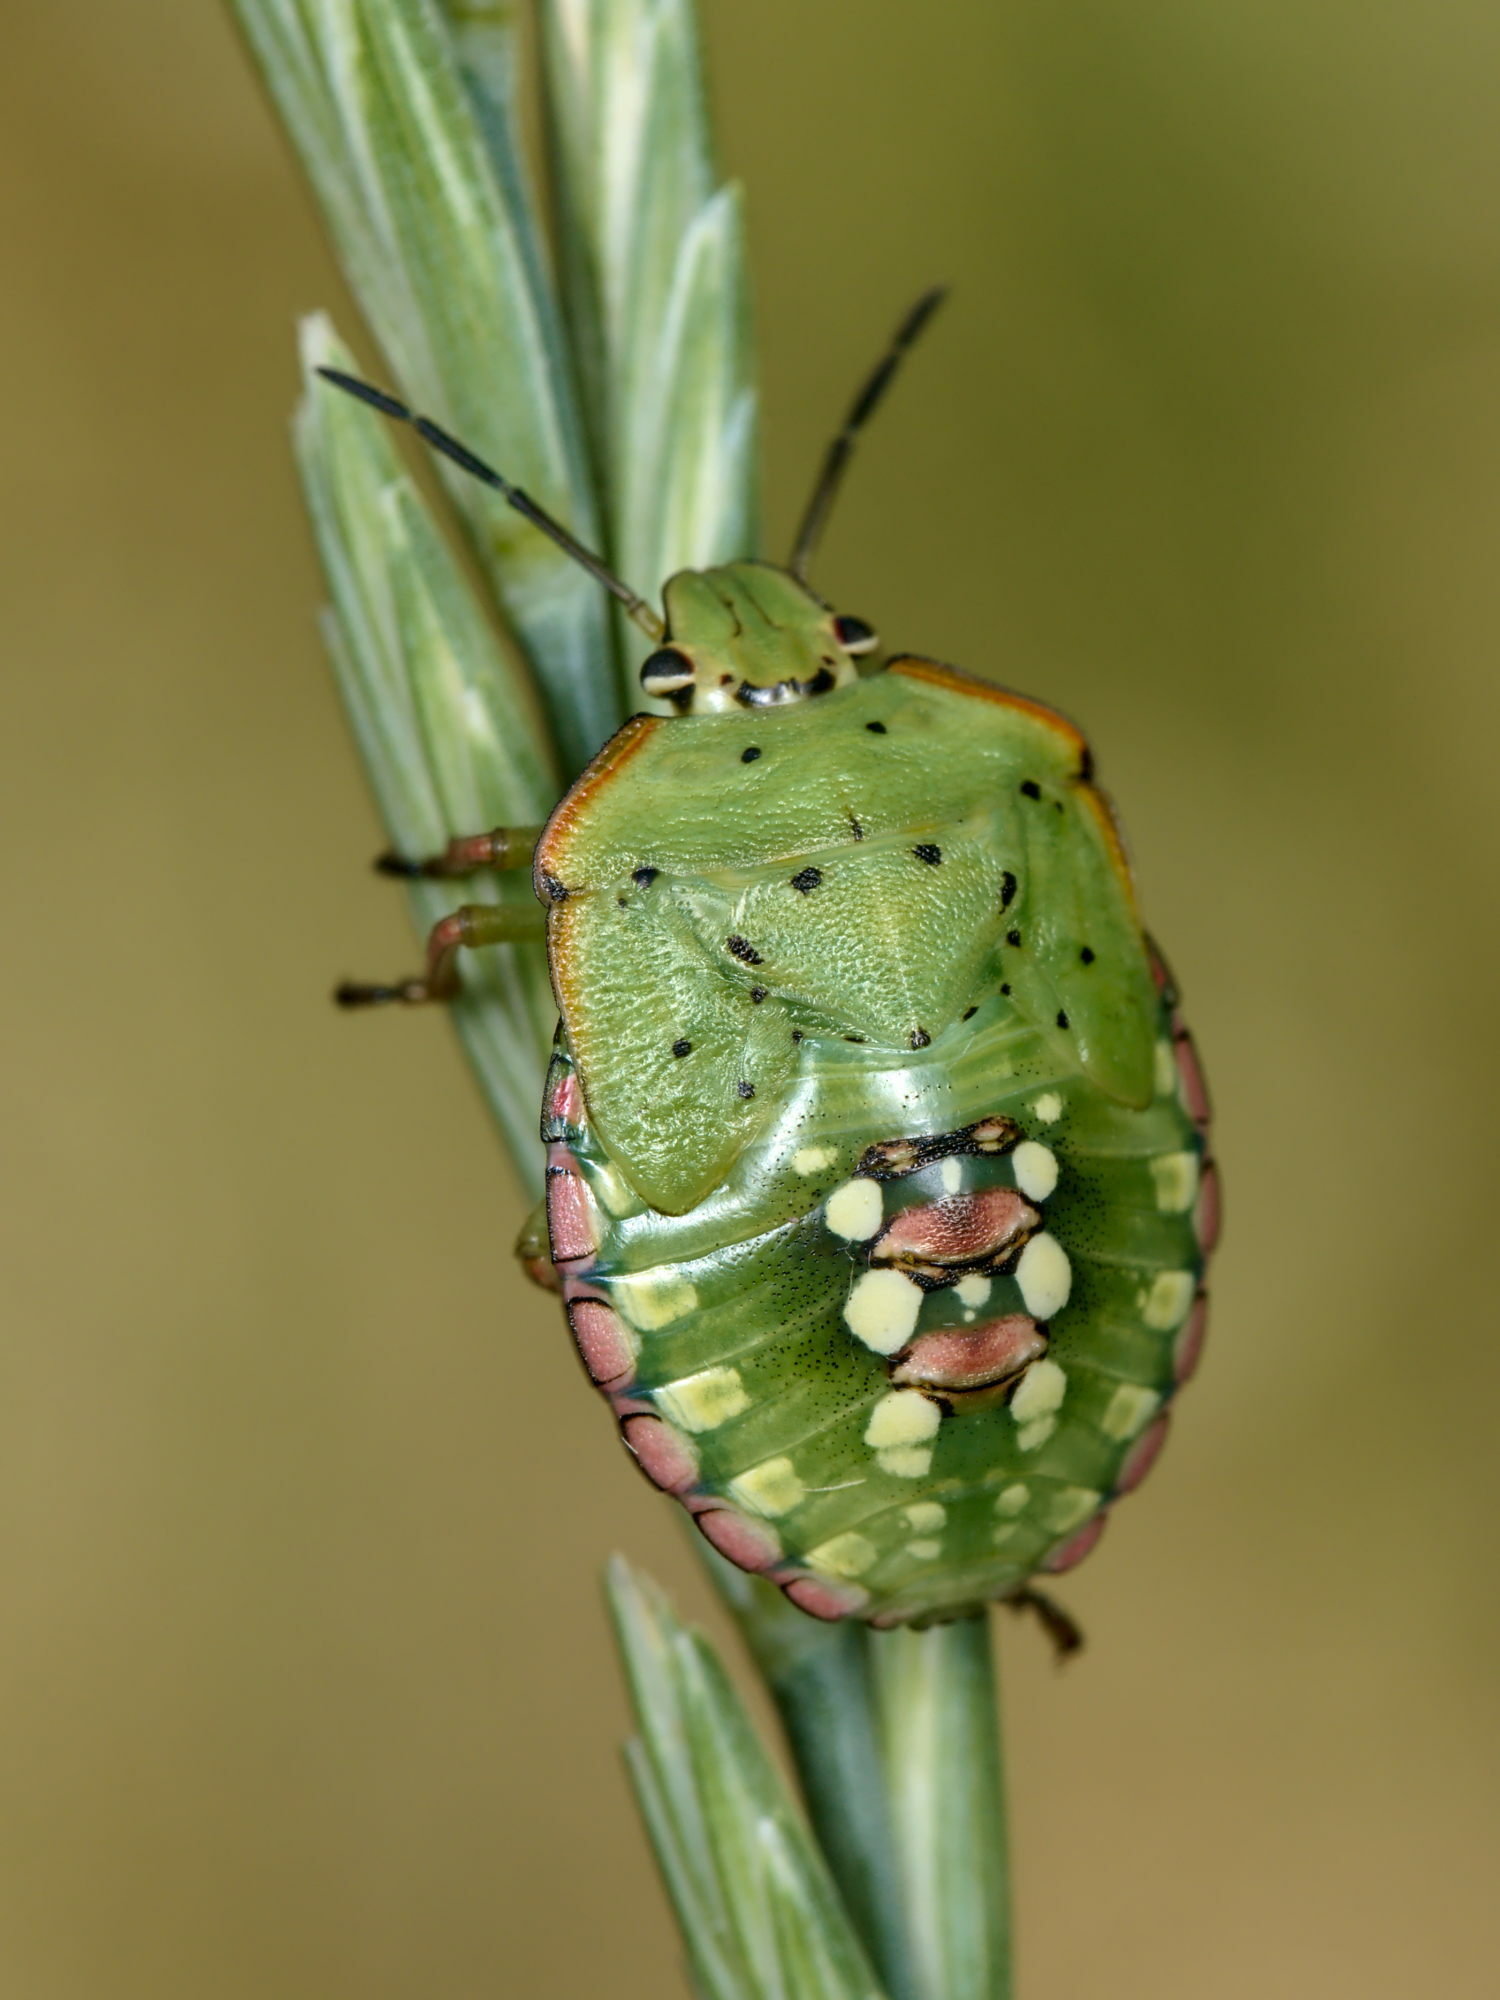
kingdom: Animalia
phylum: Arthropoda
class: Insecta
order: Hemiptera
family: Pentatomidae
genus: Nezara
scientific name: Nezara viridula
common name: Southern green stink bug
